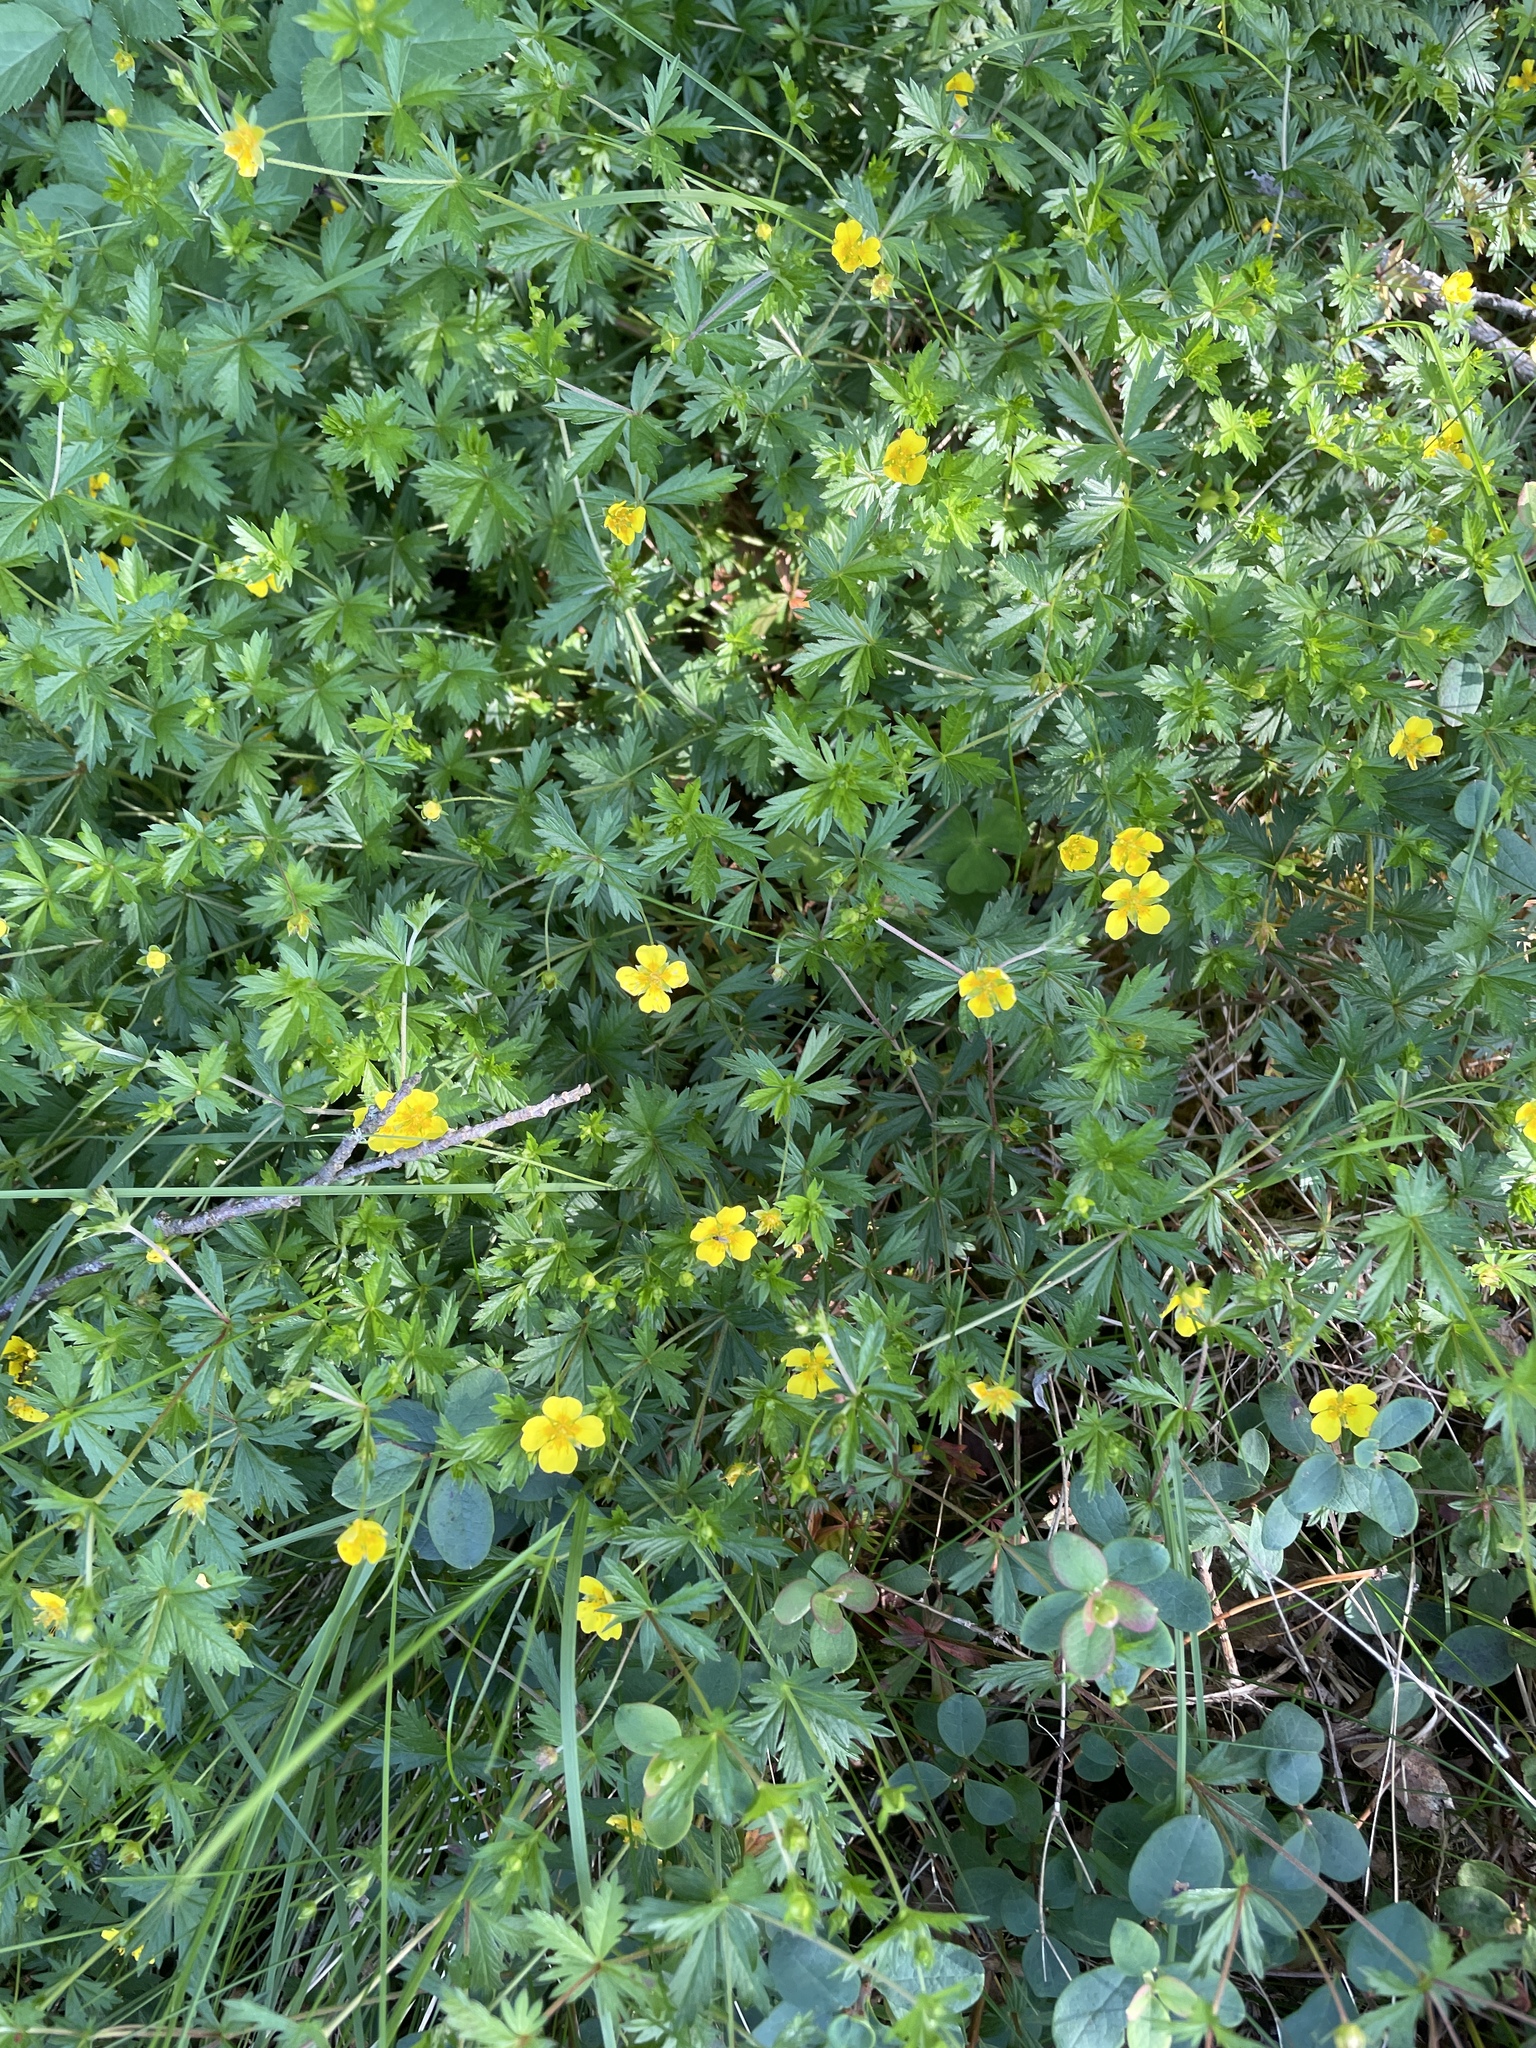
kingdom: Plantae
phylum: Tracheophyta
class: Magnoliopsida
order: Rosales
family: Rosaceae
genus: Potentilla
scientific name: Potentilla erecta
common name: Tormentil
